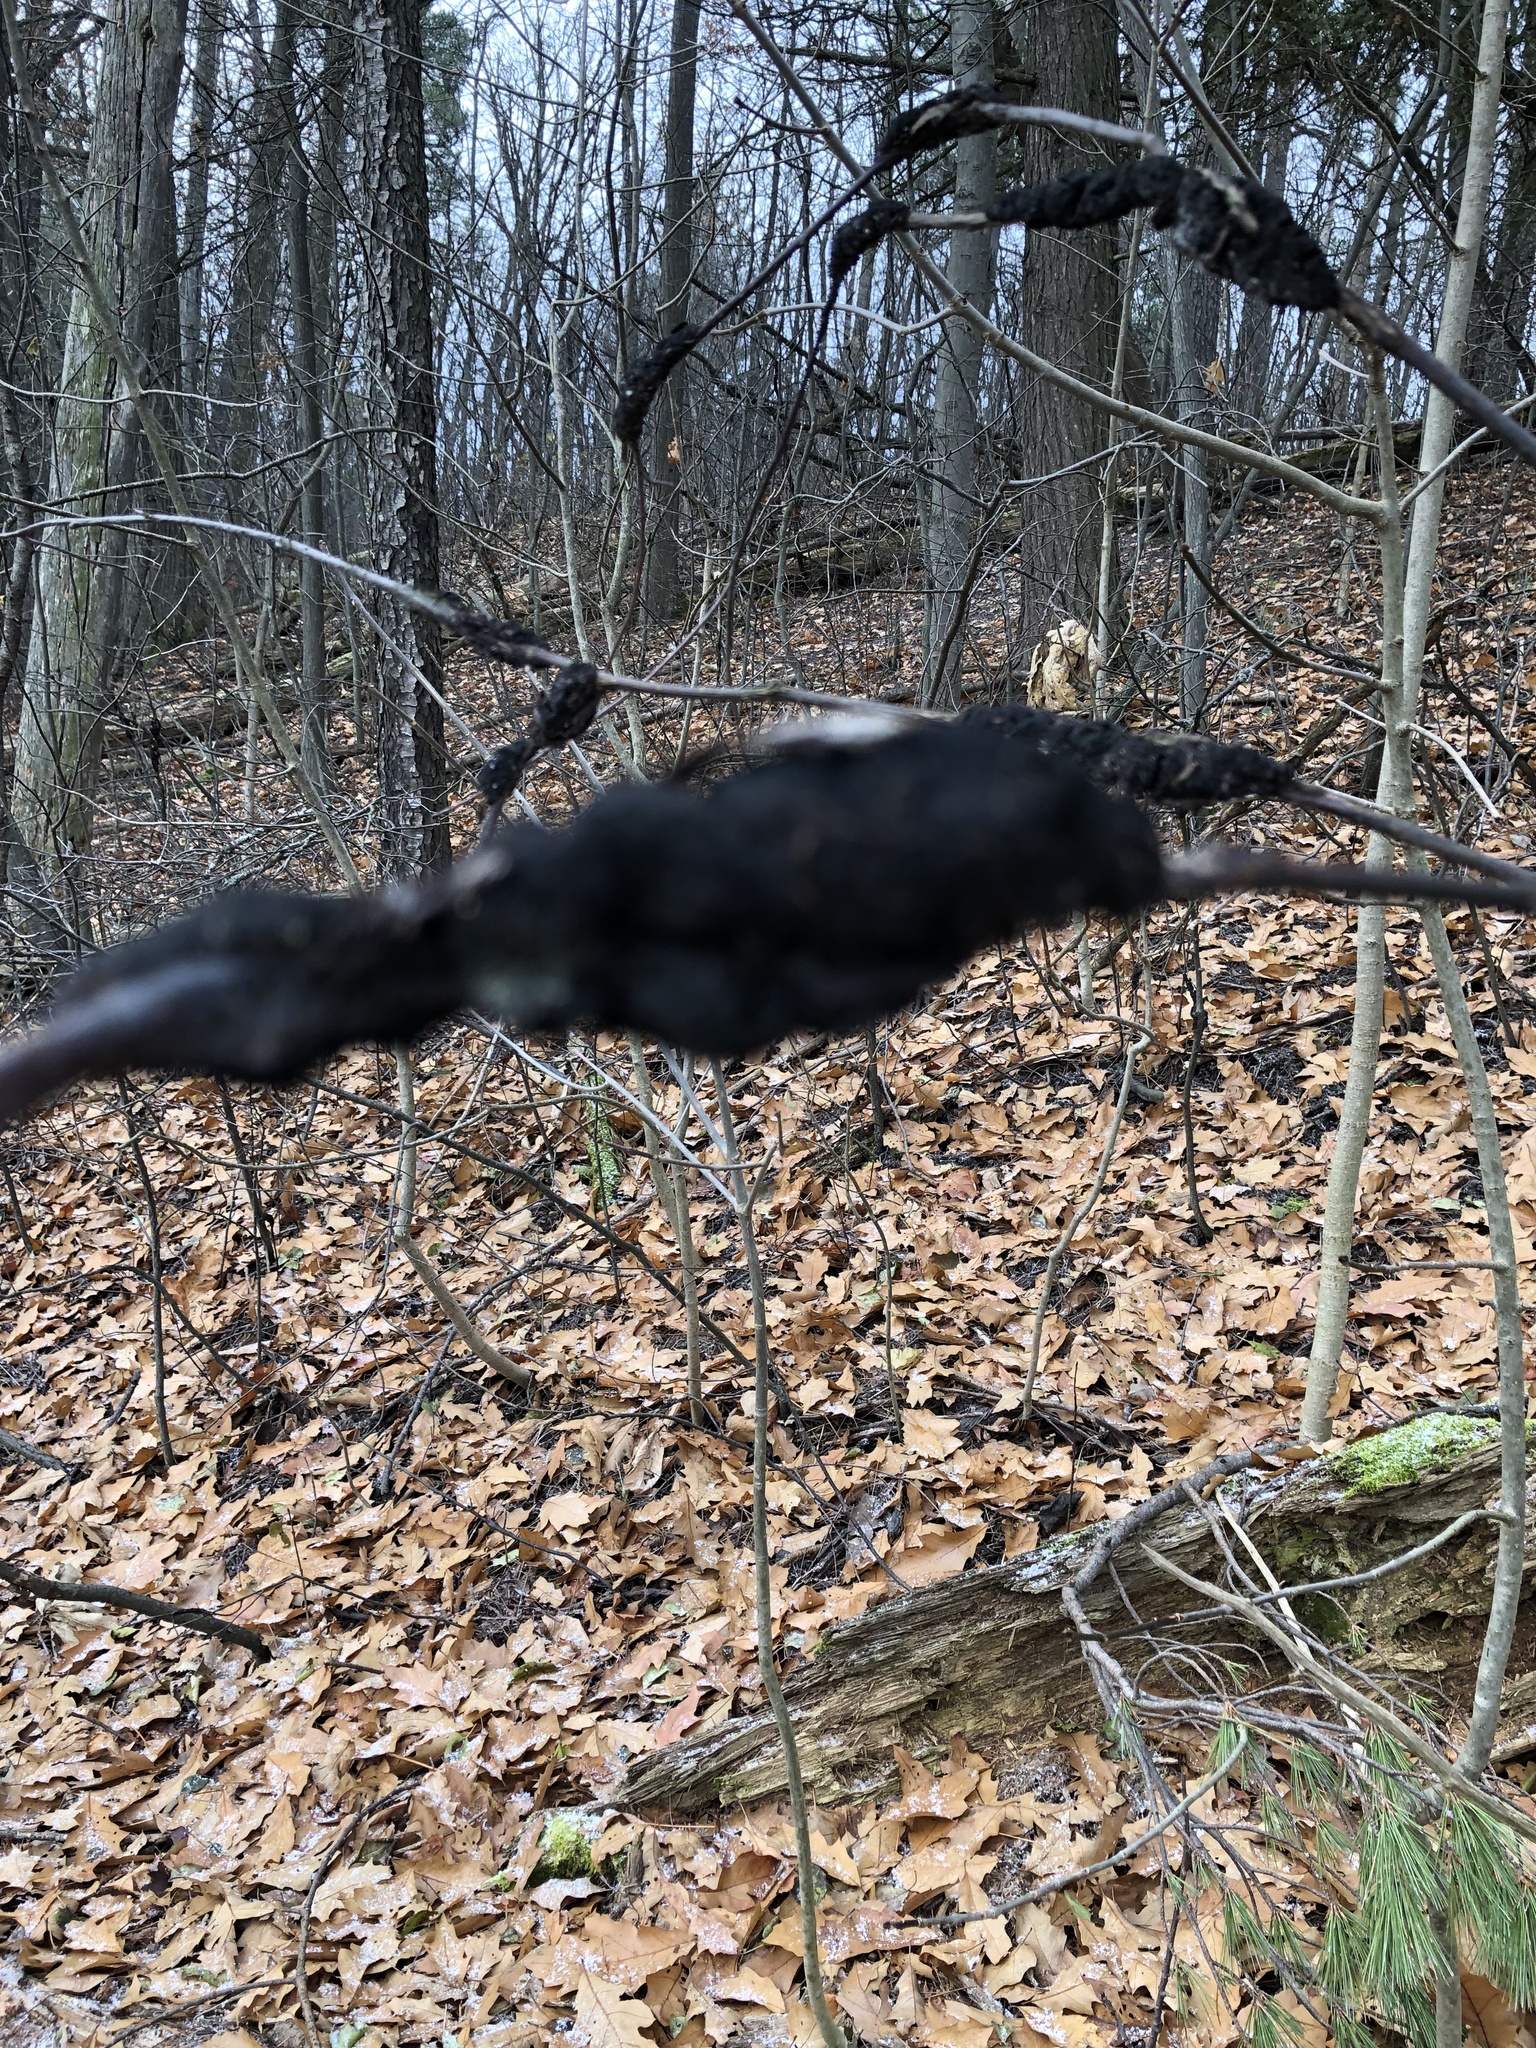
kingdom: Fungi
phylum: Ascomycota
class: Dothideomycetes
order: Venturiales
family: Venturiaceae
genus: Apiosporina
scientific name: Apiosporina morbosa
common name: Black knot
